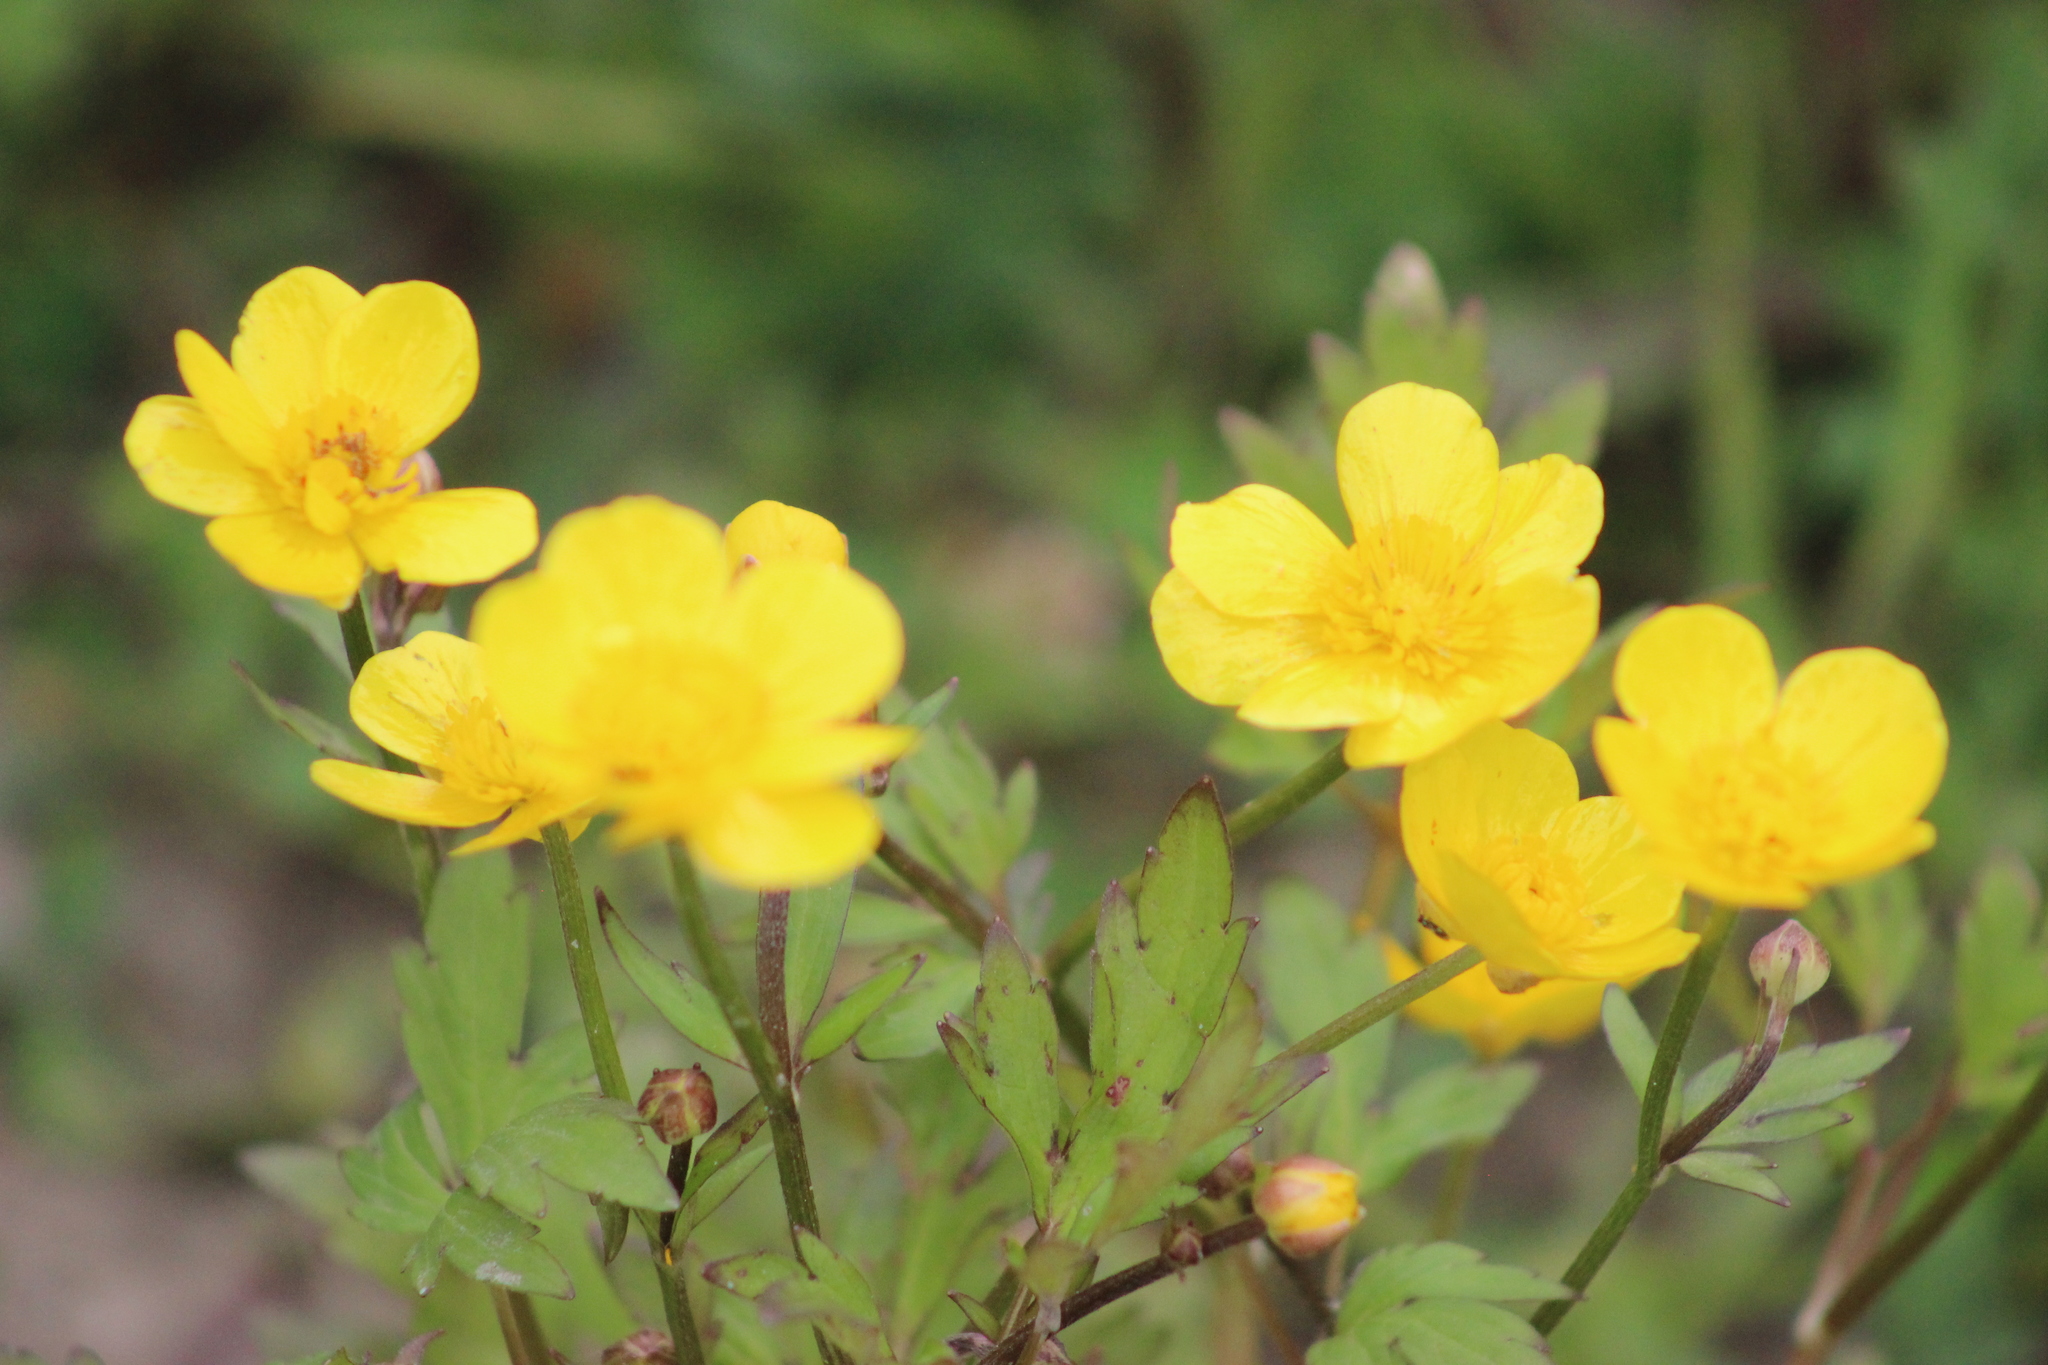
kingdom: Plantae
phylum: Tracheophyta
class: Magnoliopsida
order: Ranunculales
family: Ranunculaceae
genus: Ranunculus
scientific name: Ranunculus propinquus
